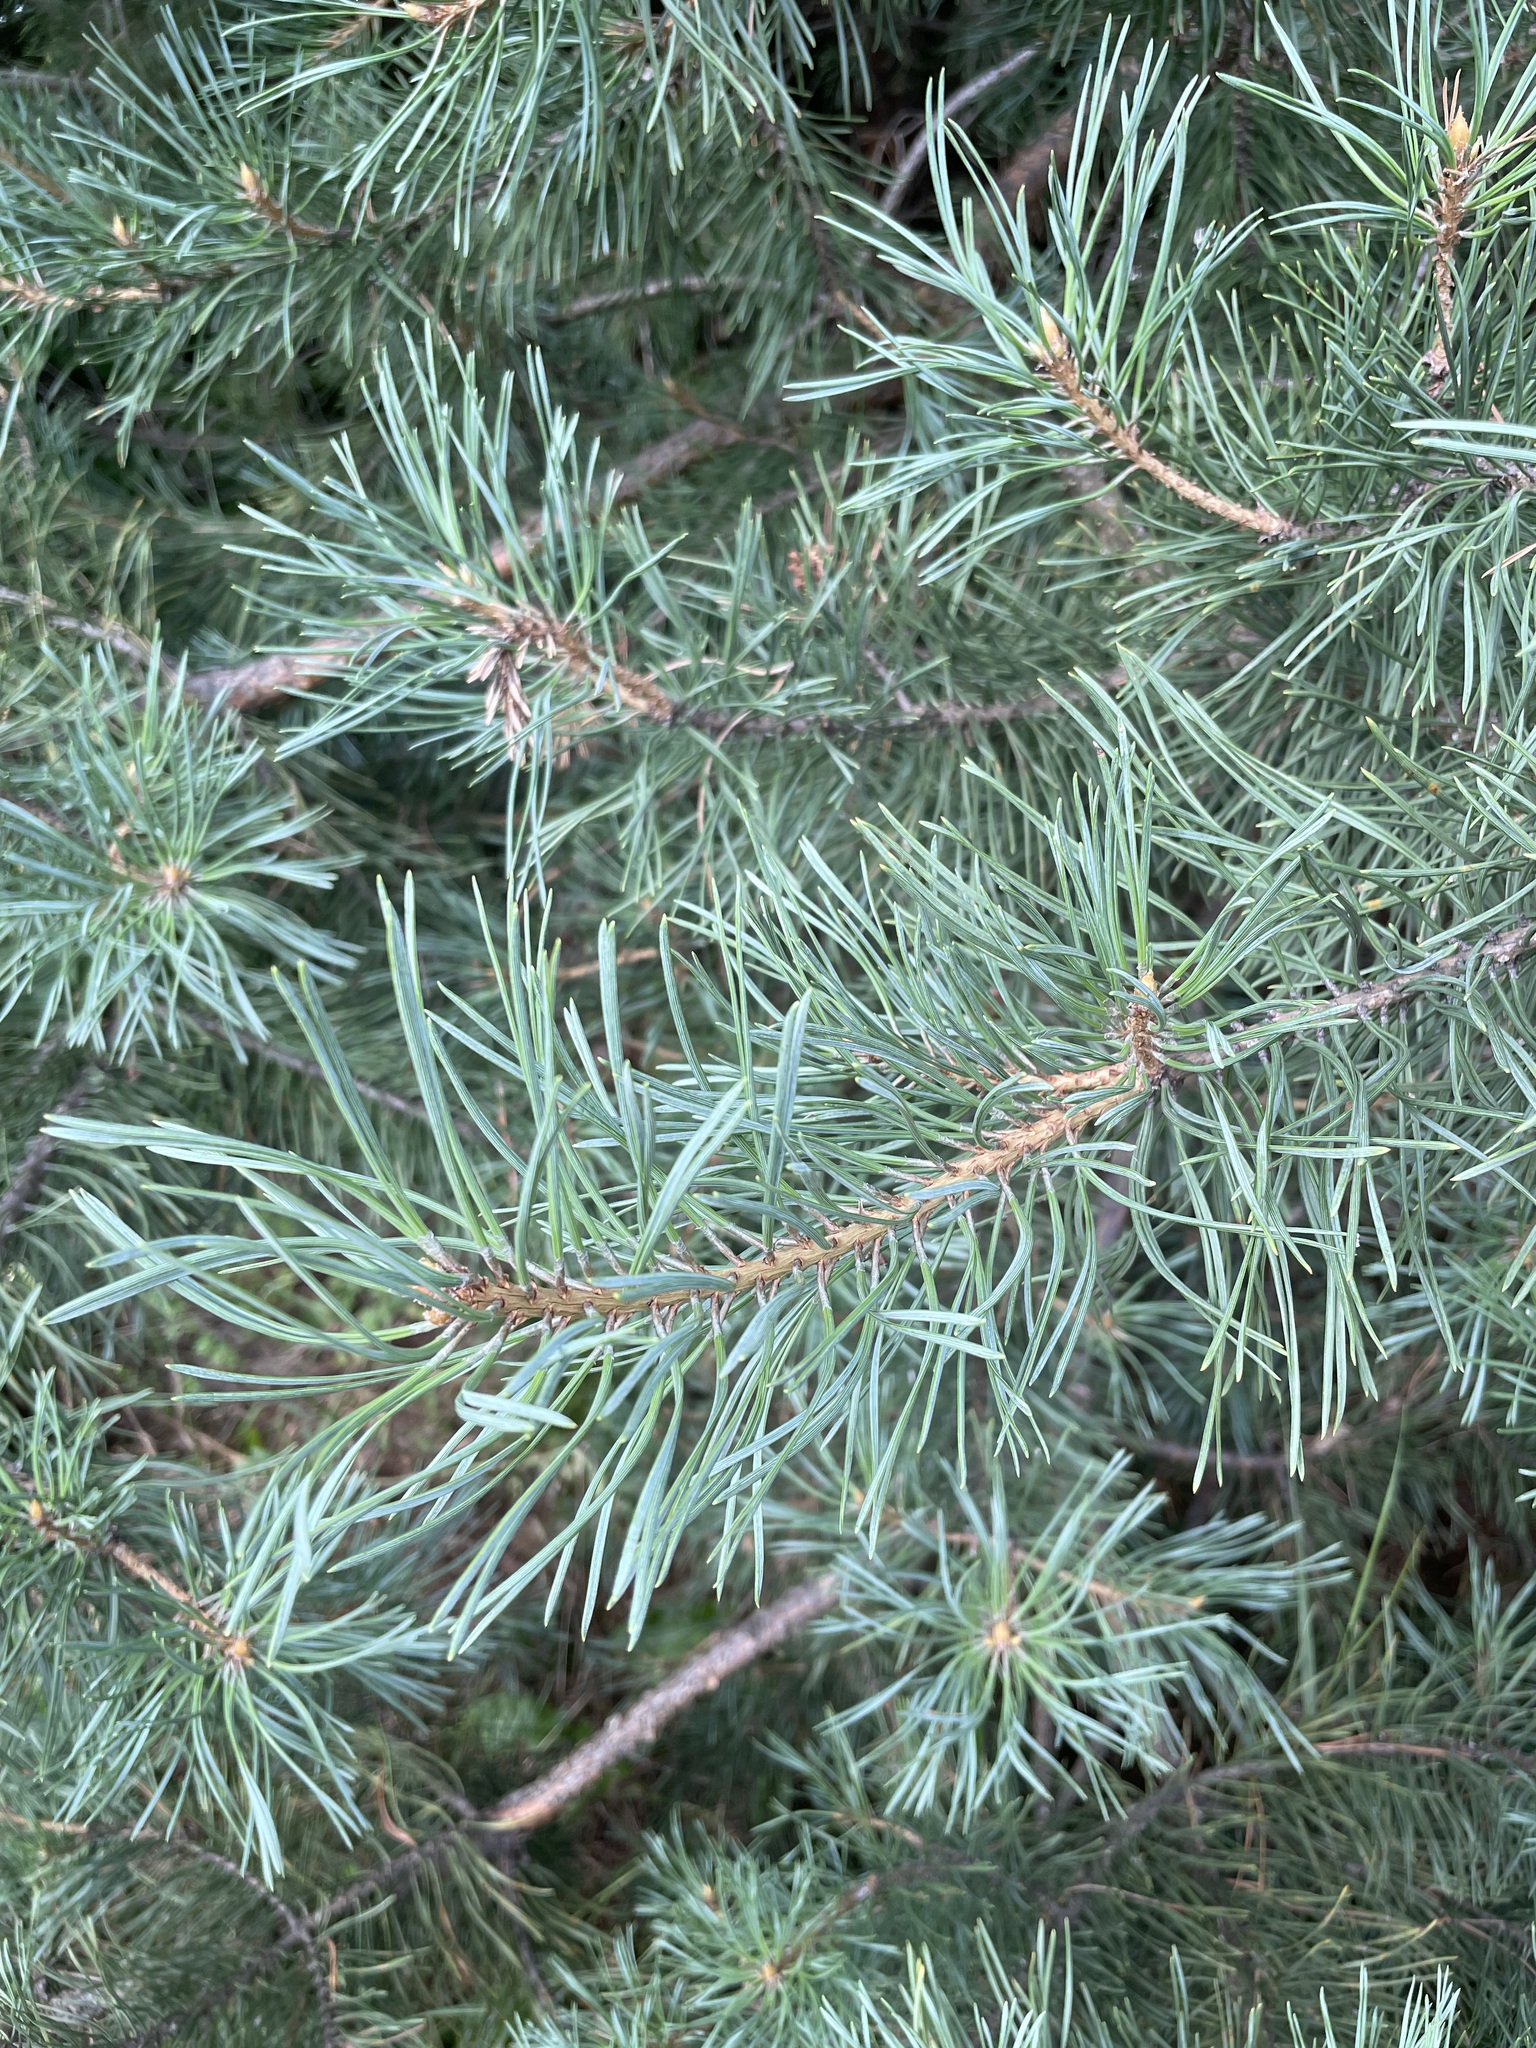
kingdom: Plantae
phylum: Tracheophyta
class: Pinopsida
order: Pinales
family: Pinaceae
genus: Pinus
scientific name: Pinus sylvestris
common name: Scots pine
